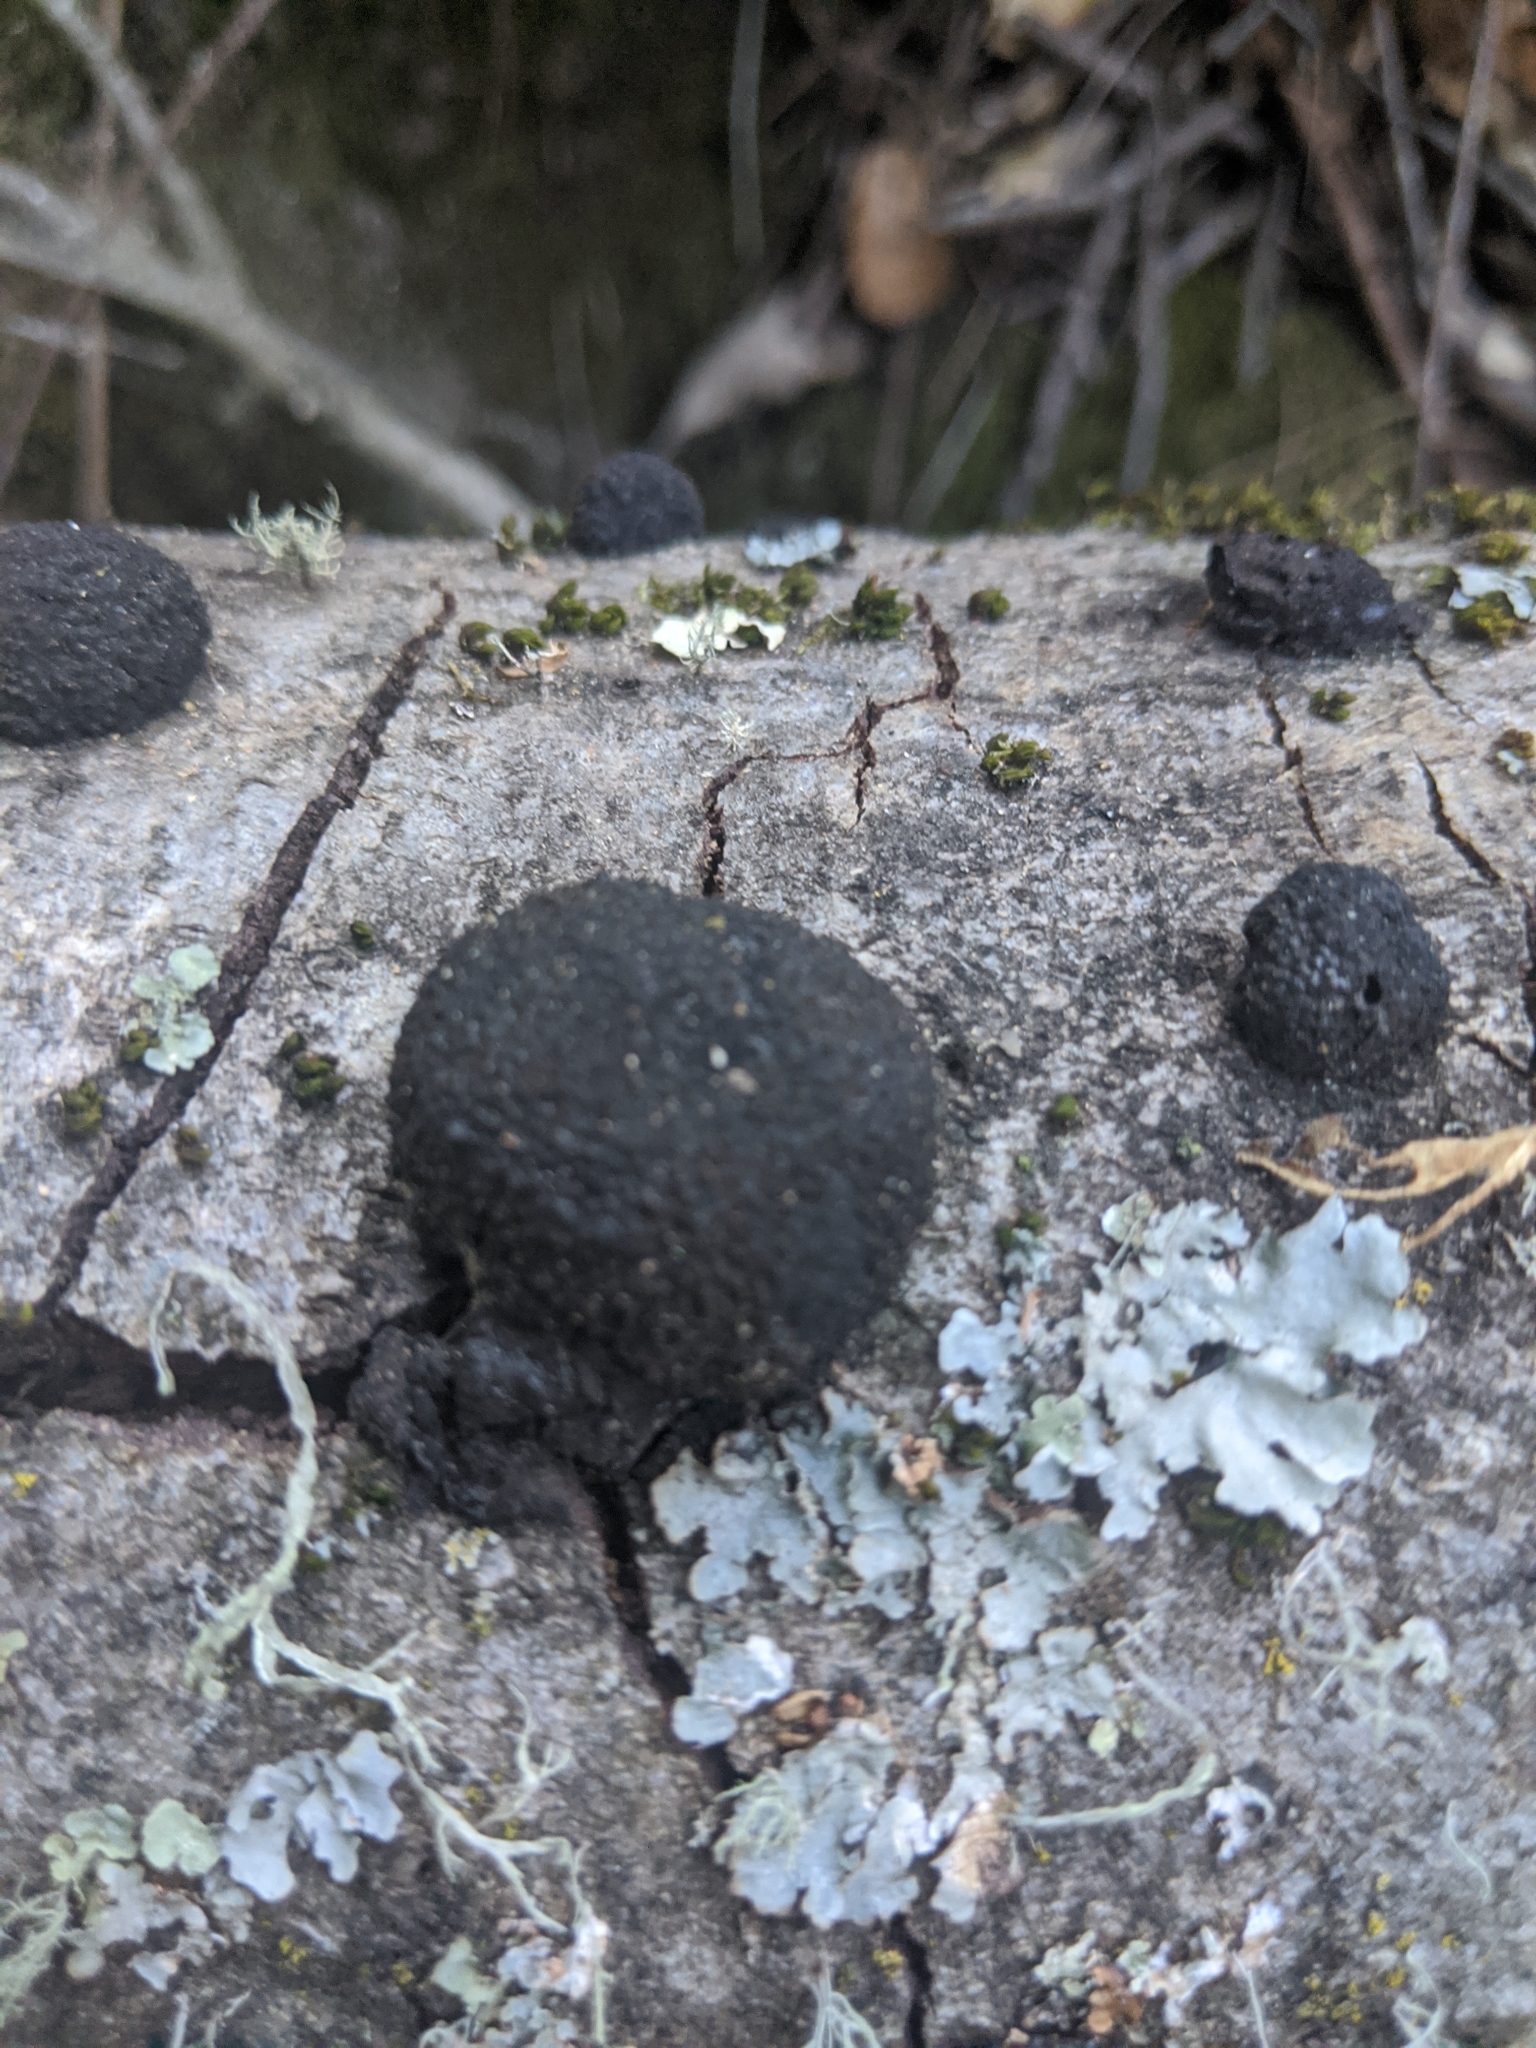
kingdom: Fungi
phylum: Ascomycota
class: Sordariomycetes
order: Xylariales
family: Hypoxylaceae
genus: Annulohypoxylon
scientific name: Annulohypoxylon thouarsianum
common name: Cramp balls
